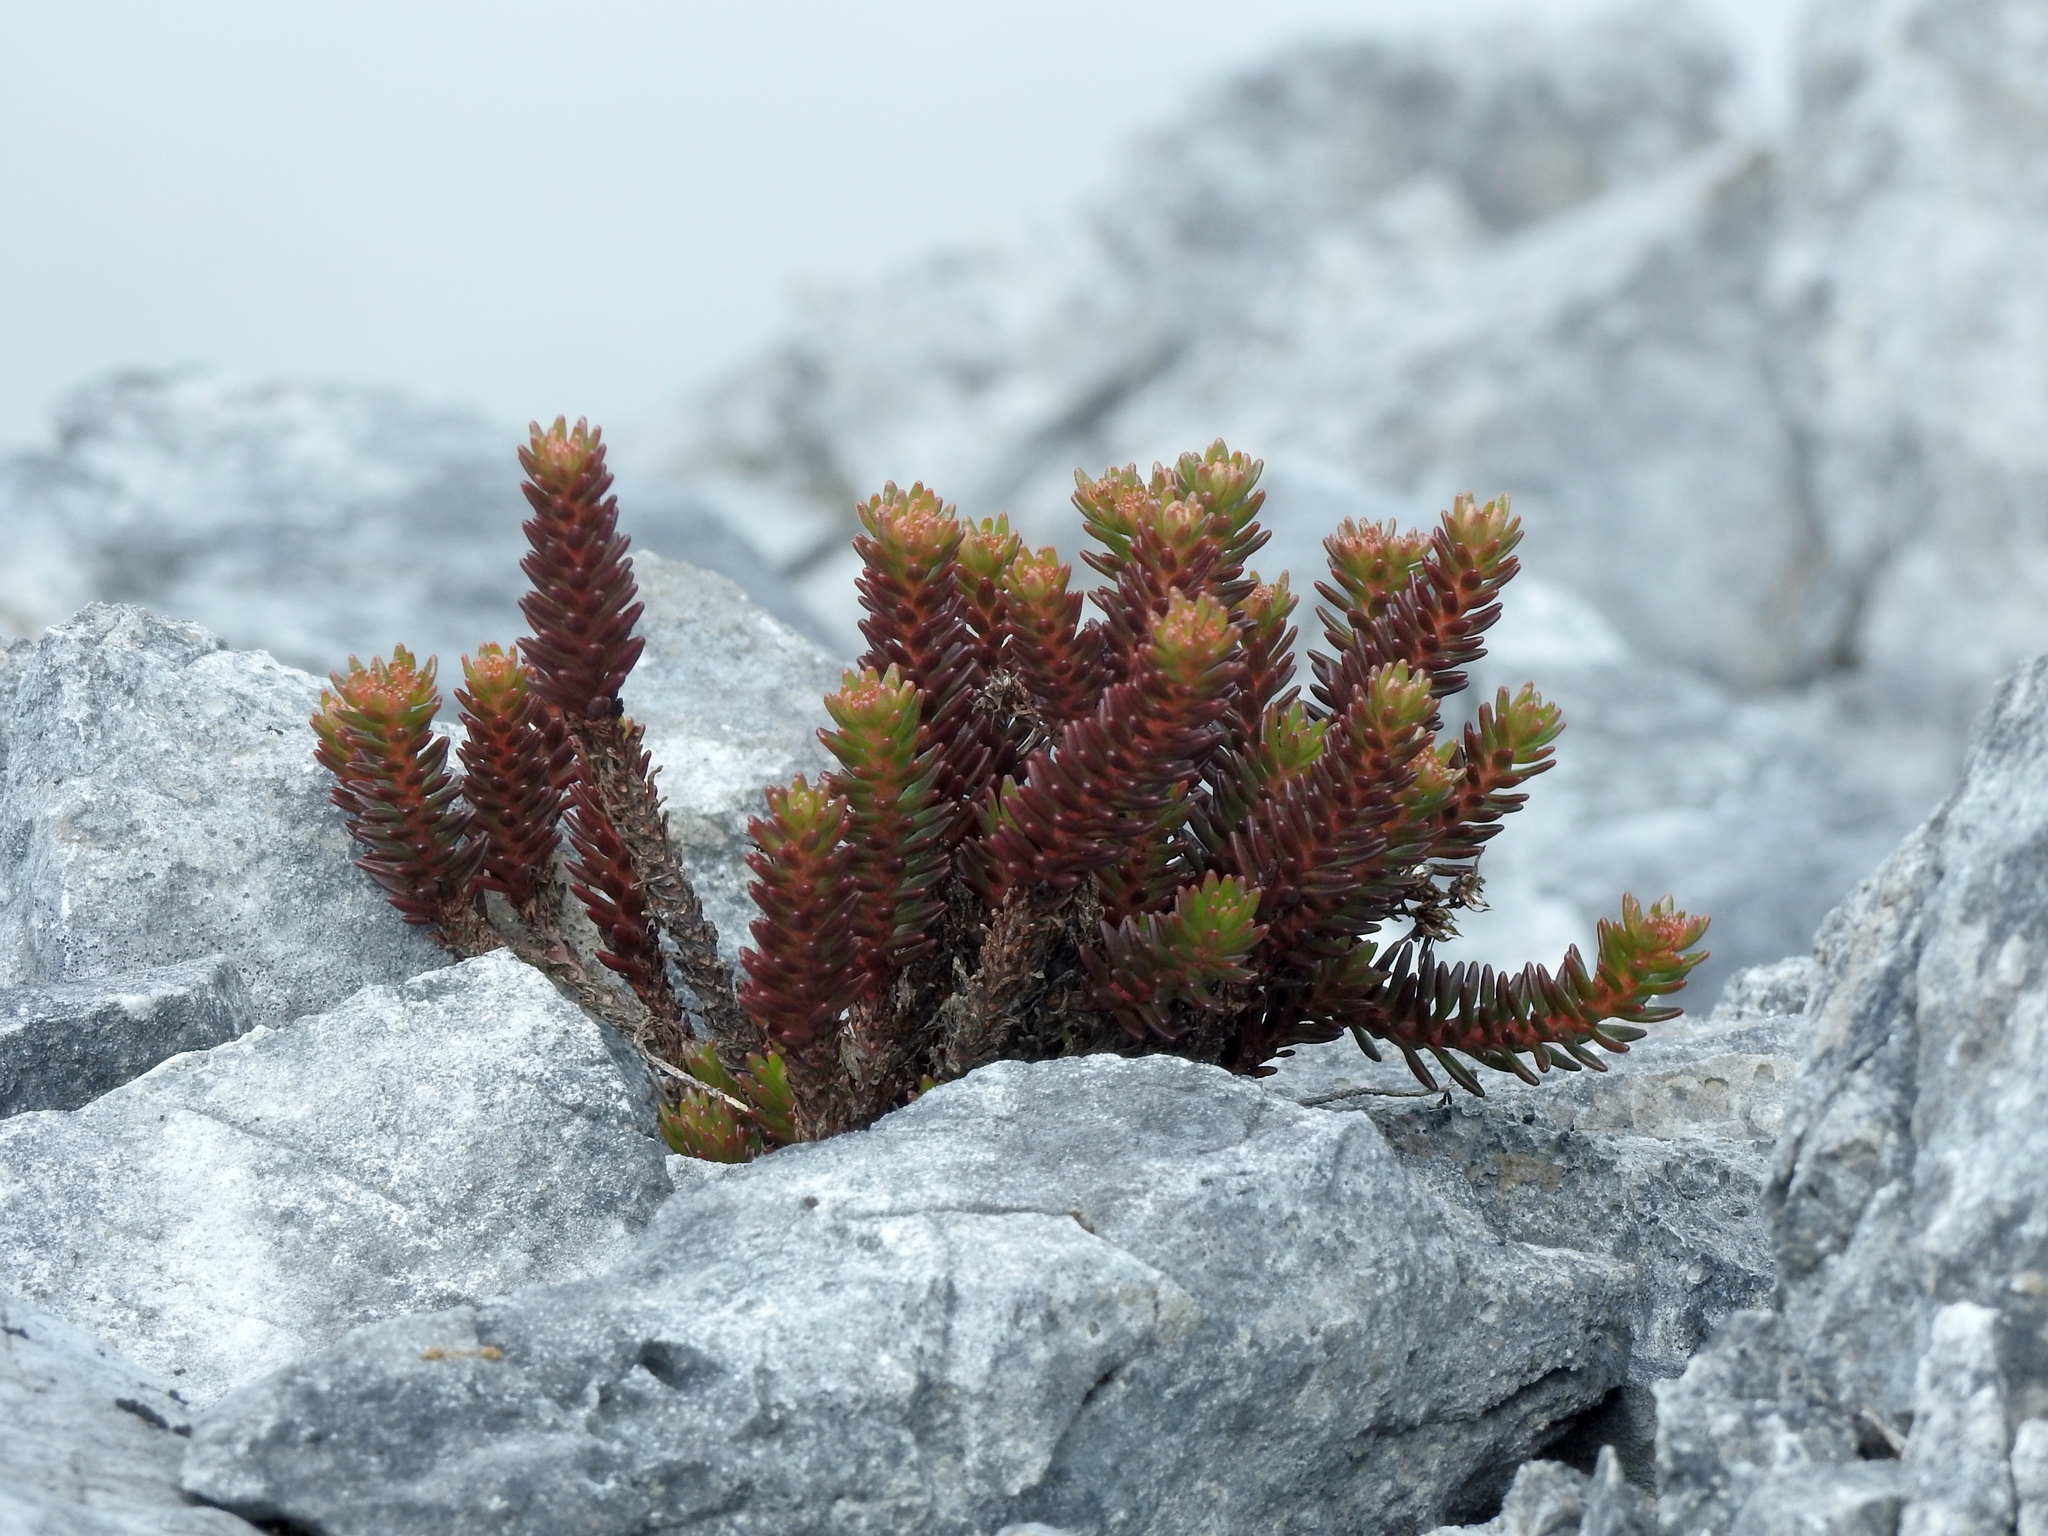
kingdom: Plantae
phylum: Tracheophyta
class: Magnoliopsida
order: Saxifragales
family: Crassulaceae
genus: Sedum
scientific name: Sedum morrisonense
